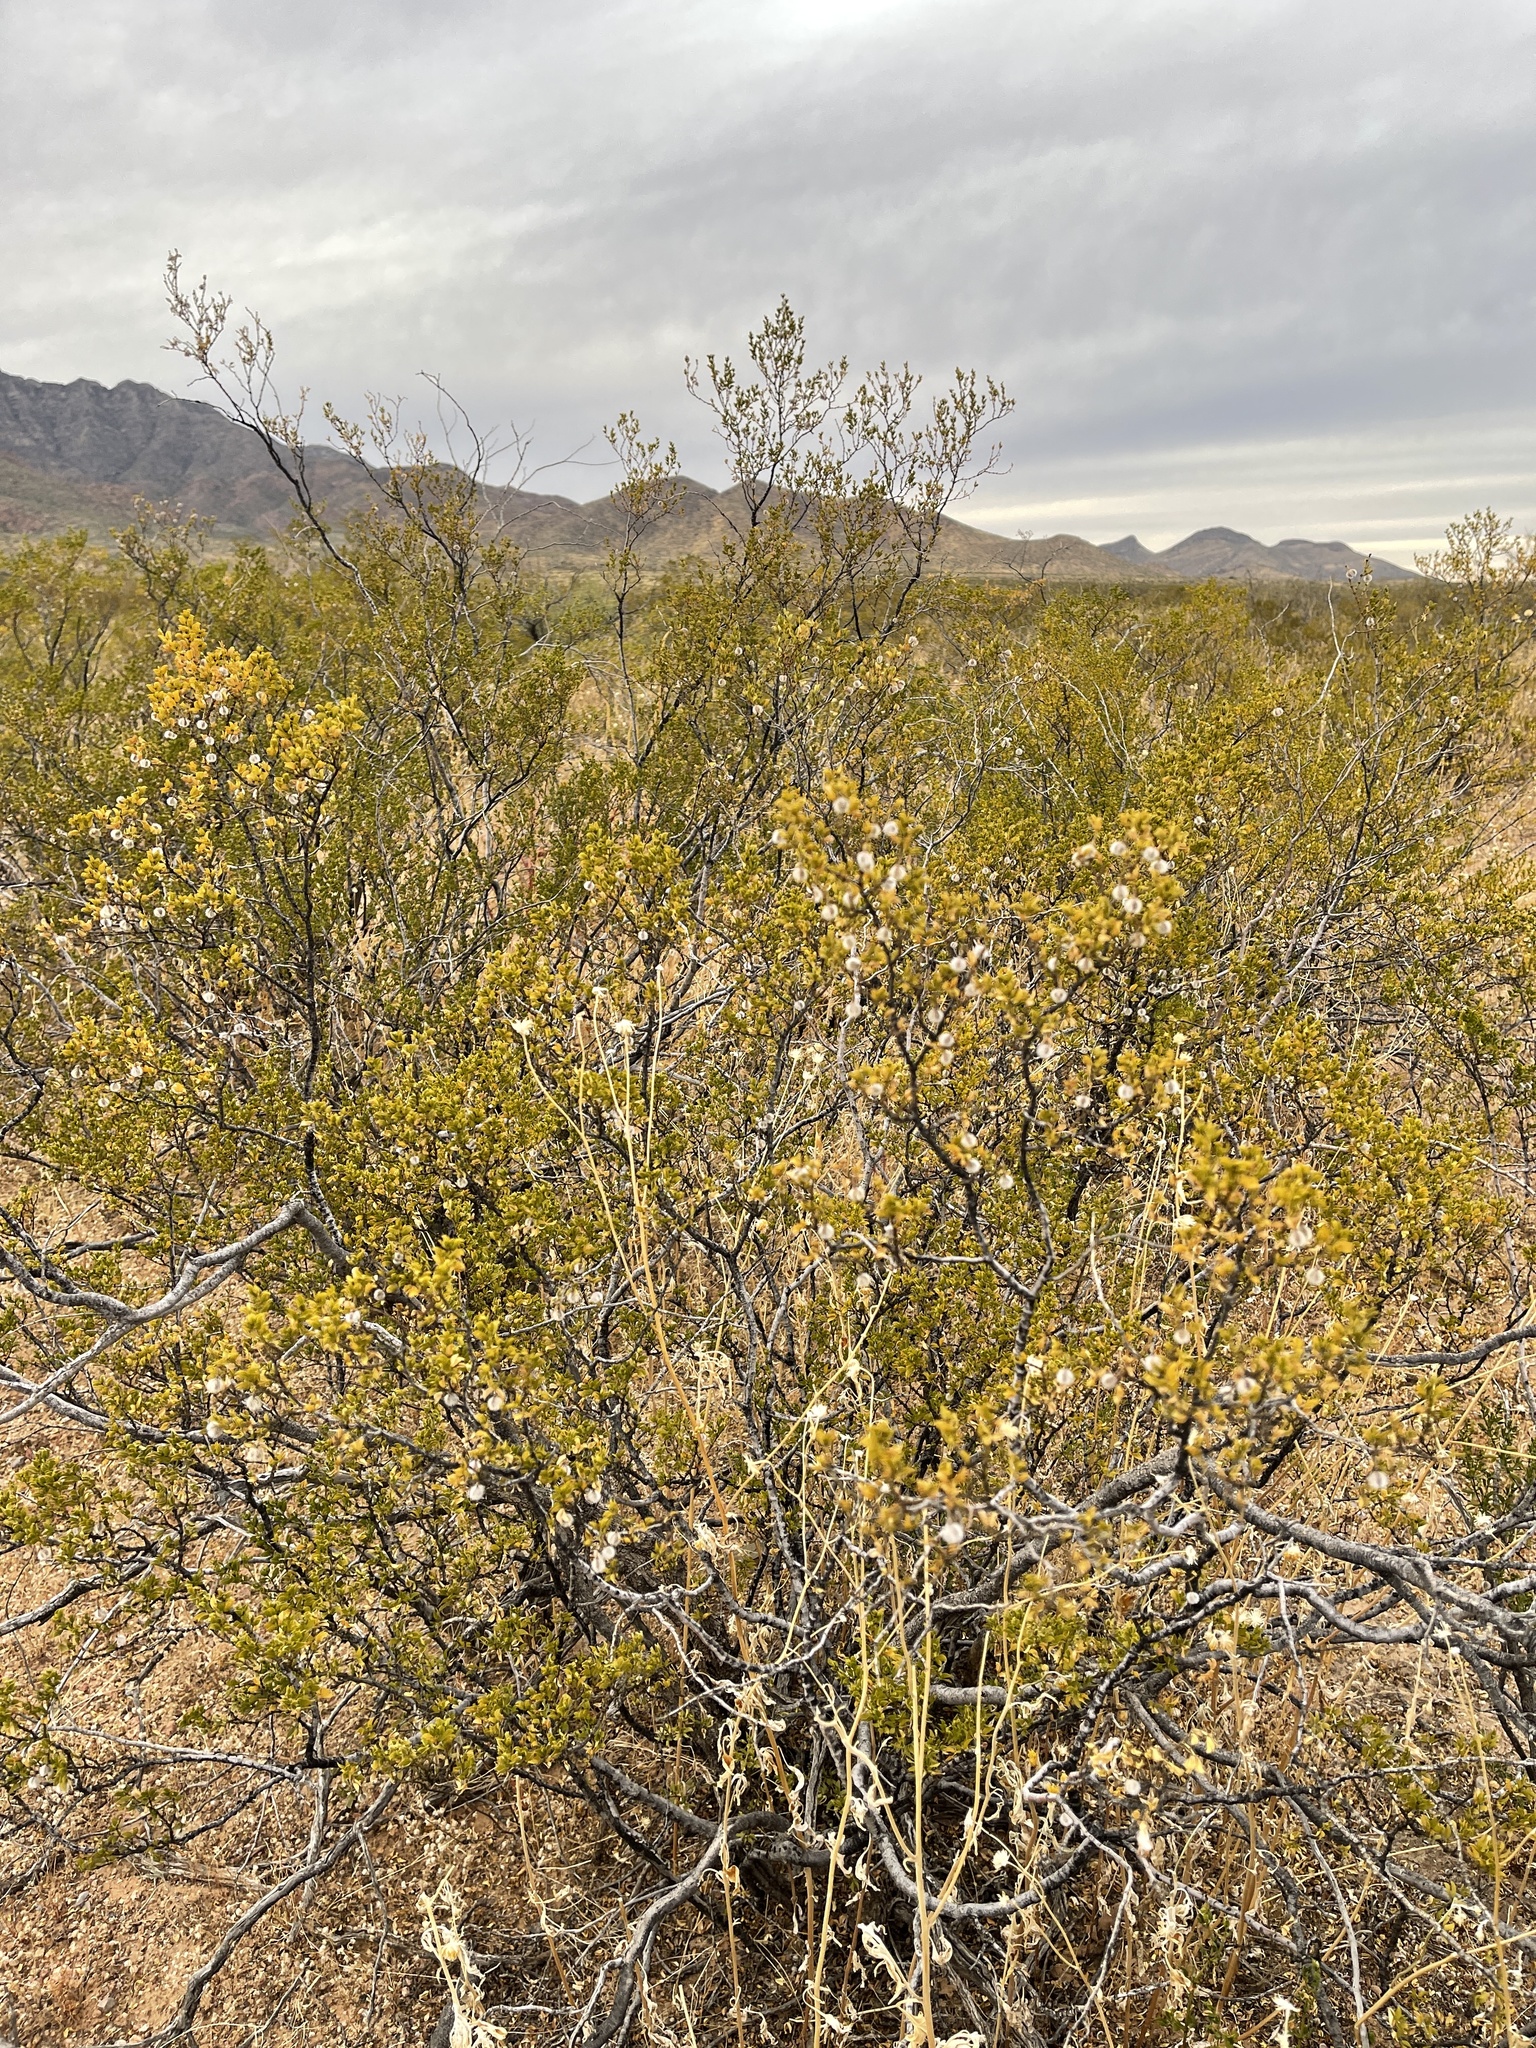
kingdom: Plantae
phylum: Tracheophyta
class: Magnoliopsida
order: Zygophyllales
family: Zygophyllaceae
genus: Larrea
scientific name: Larrea tridentata
